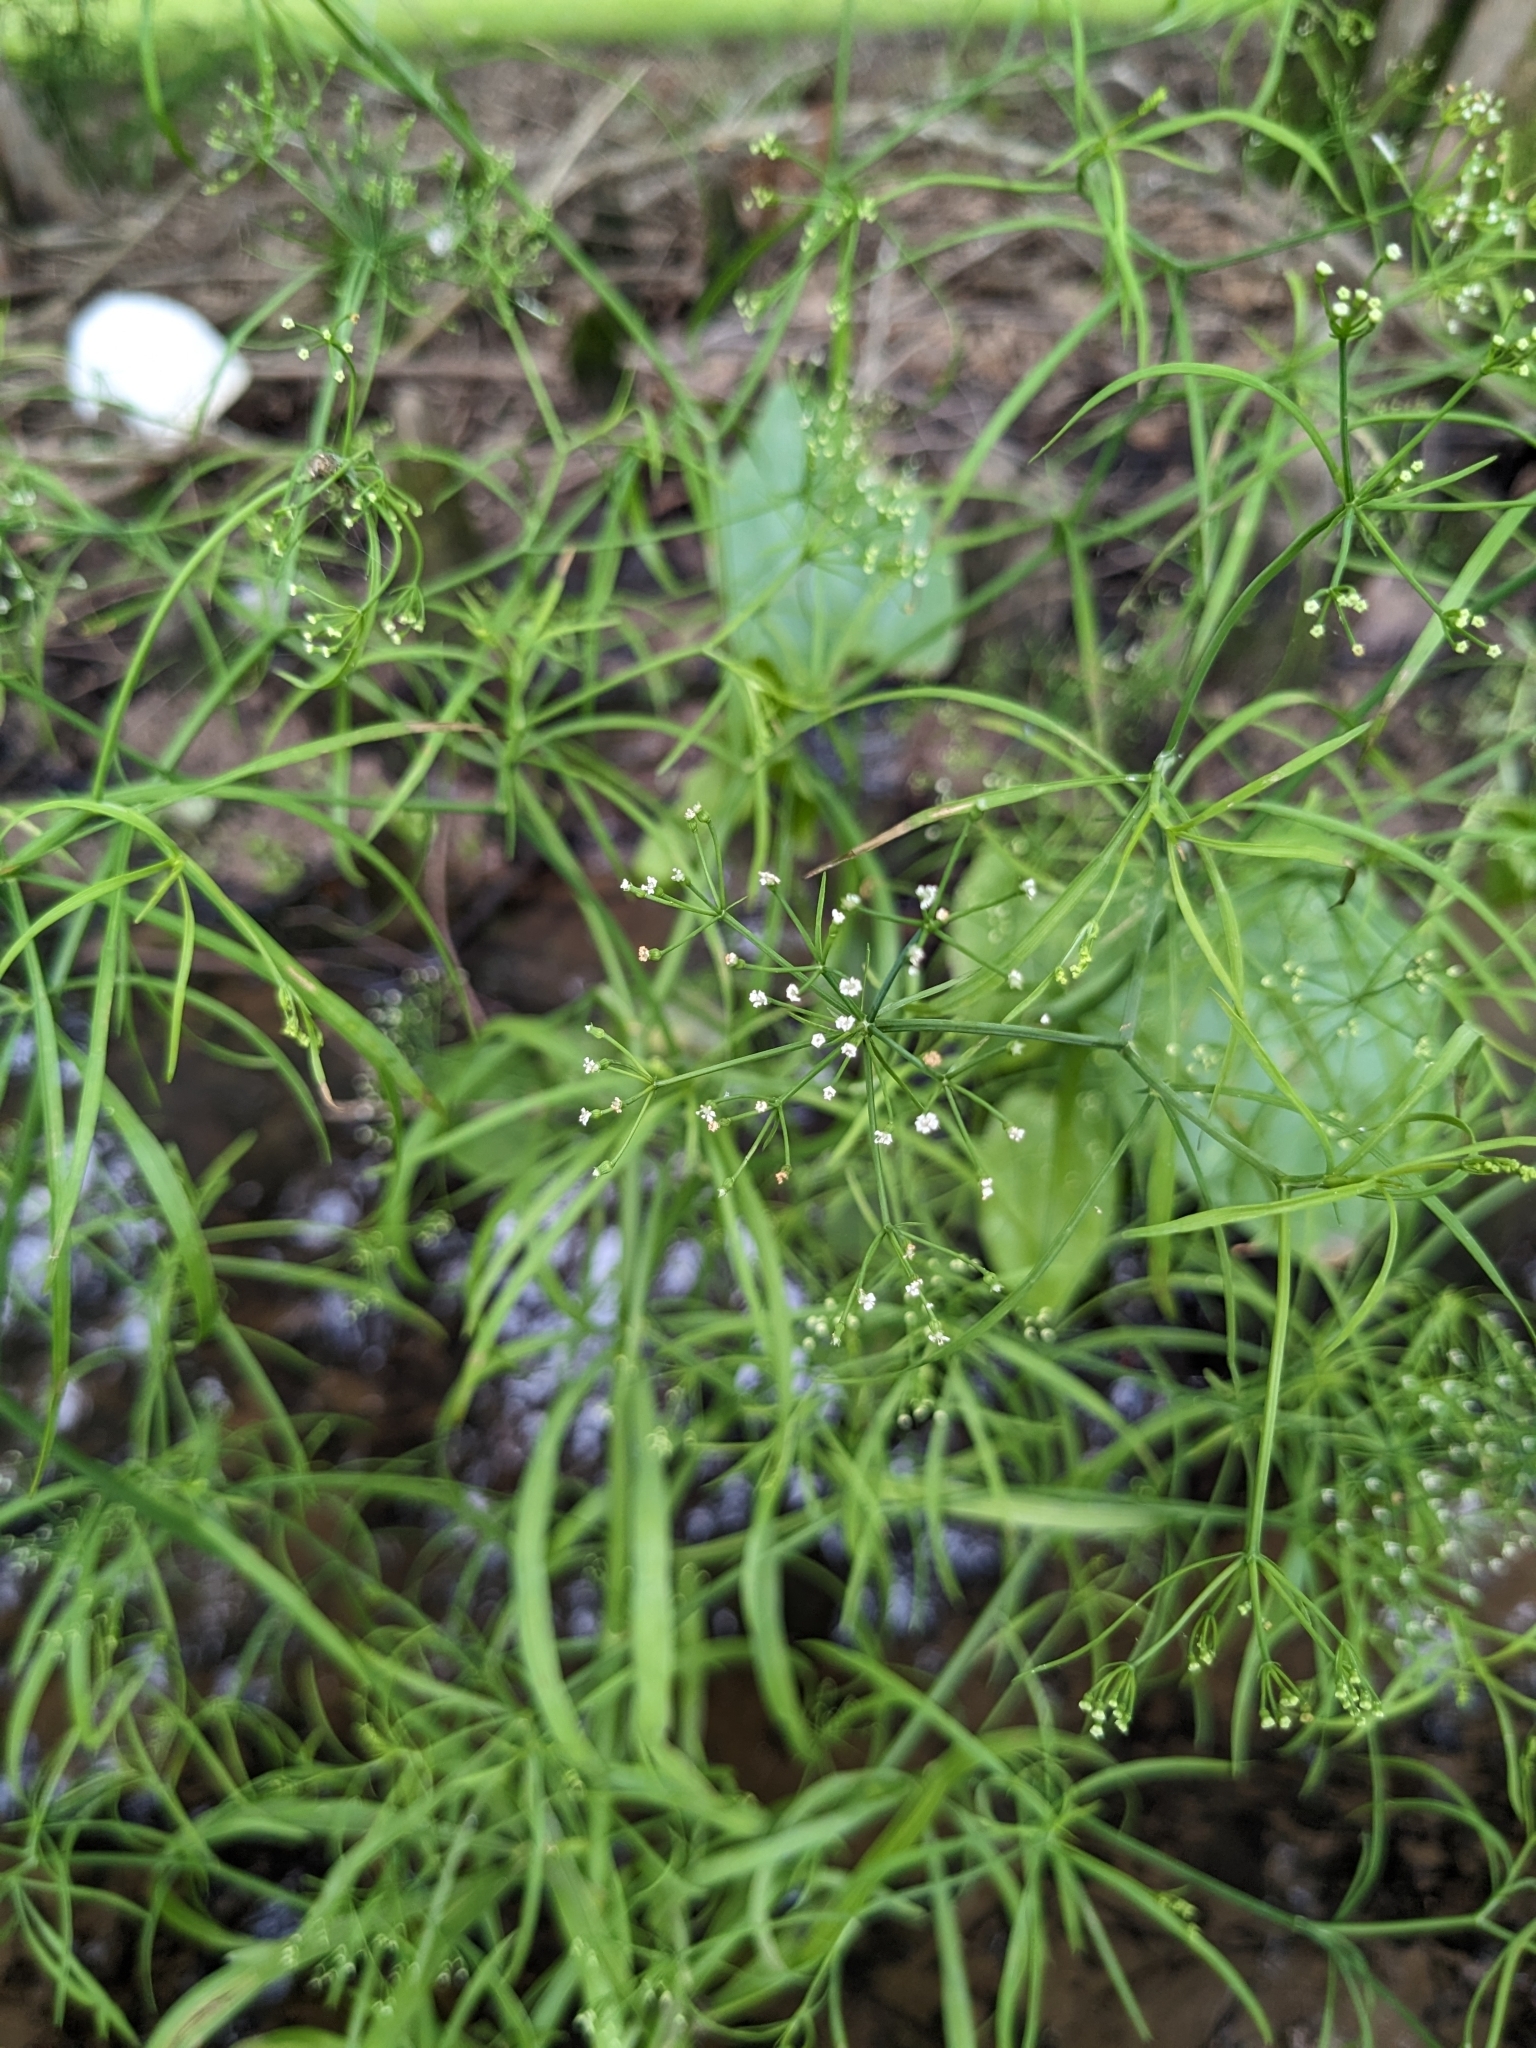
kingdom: Plantae
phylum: Tracheophyta
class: Magnoliopsida
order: Apiales
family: Apiaceae
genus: Cynosciadium
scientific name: Cynosciadium digitatum
